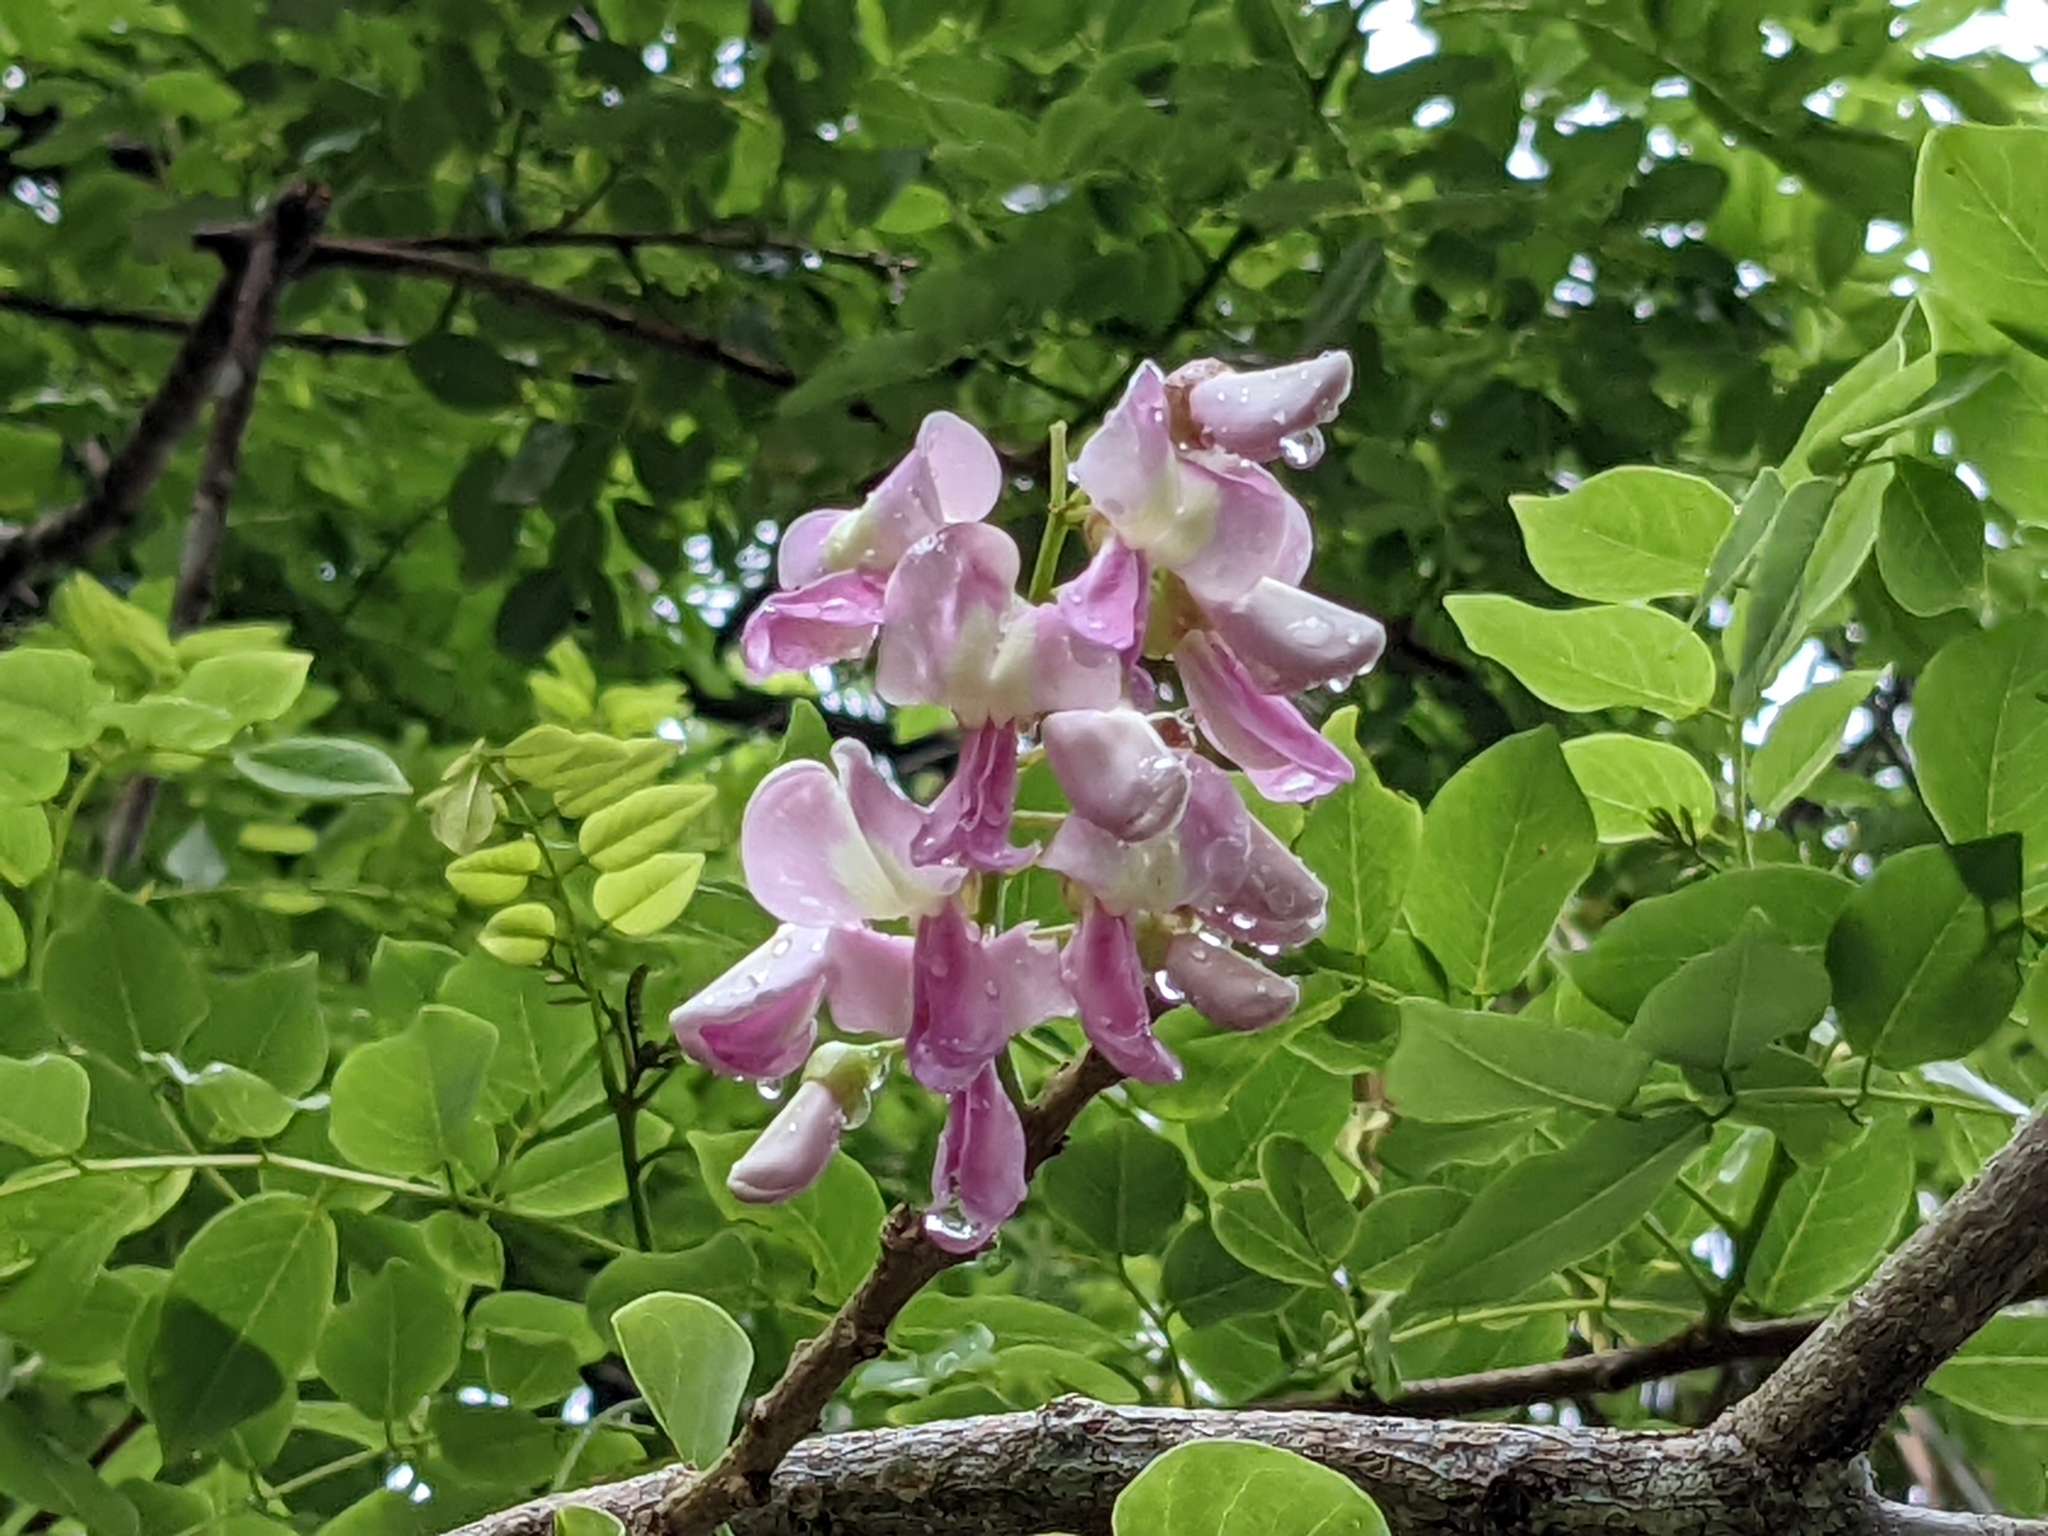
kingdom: Plantae
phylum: Tracheophyta
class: Magnoliopsida
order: Fabales
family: Fabaceae
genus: Gliricidia
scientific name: Gliricidia sepium
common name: Quickstick
